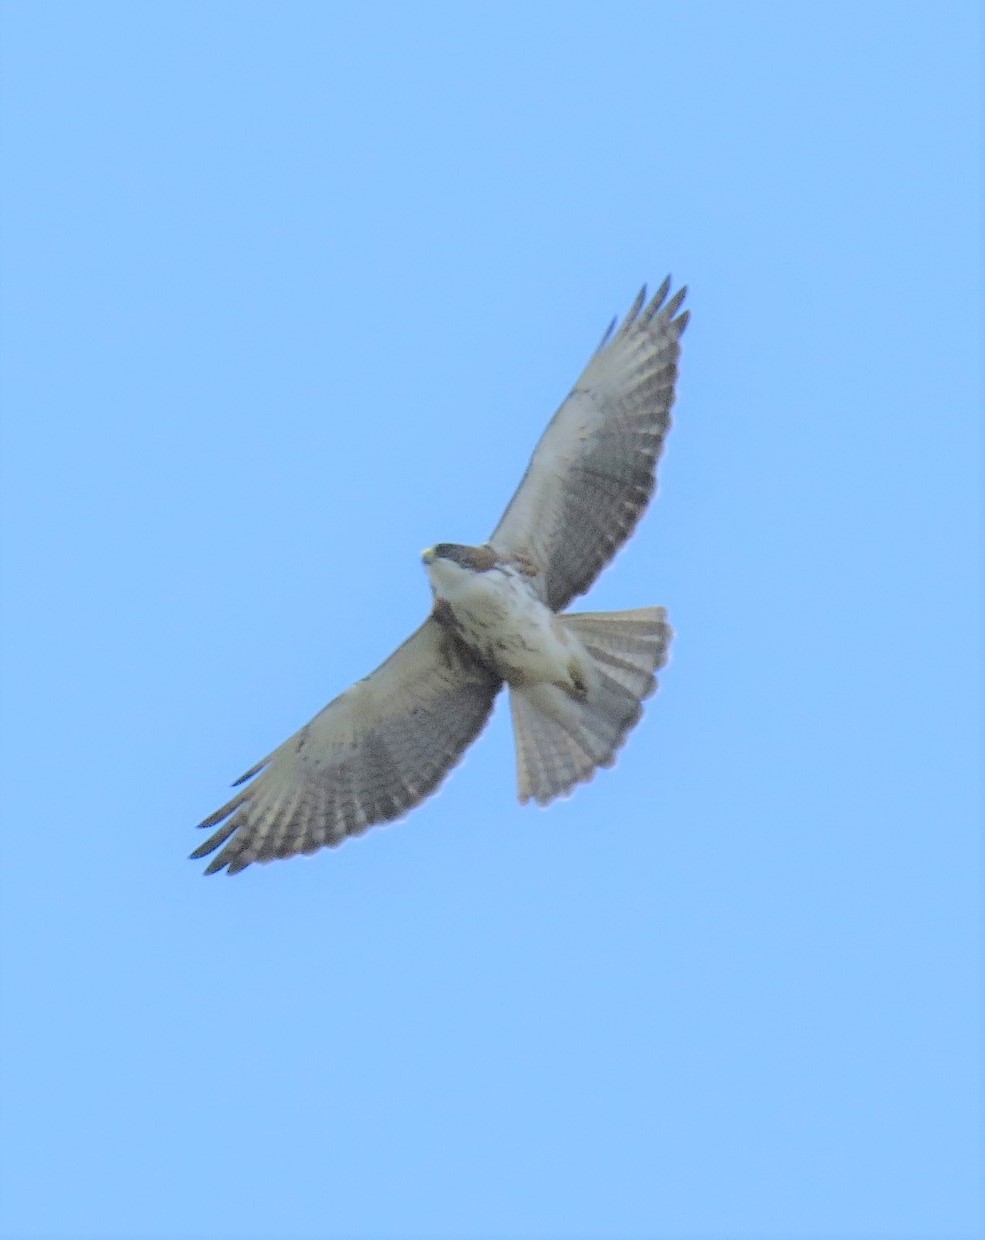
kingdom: Animalia
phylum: Chordata
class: Aves
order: Accipitriformes
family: Accipitridae
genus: Buteo
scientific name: Buteo albigula
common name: White-throated hawk
